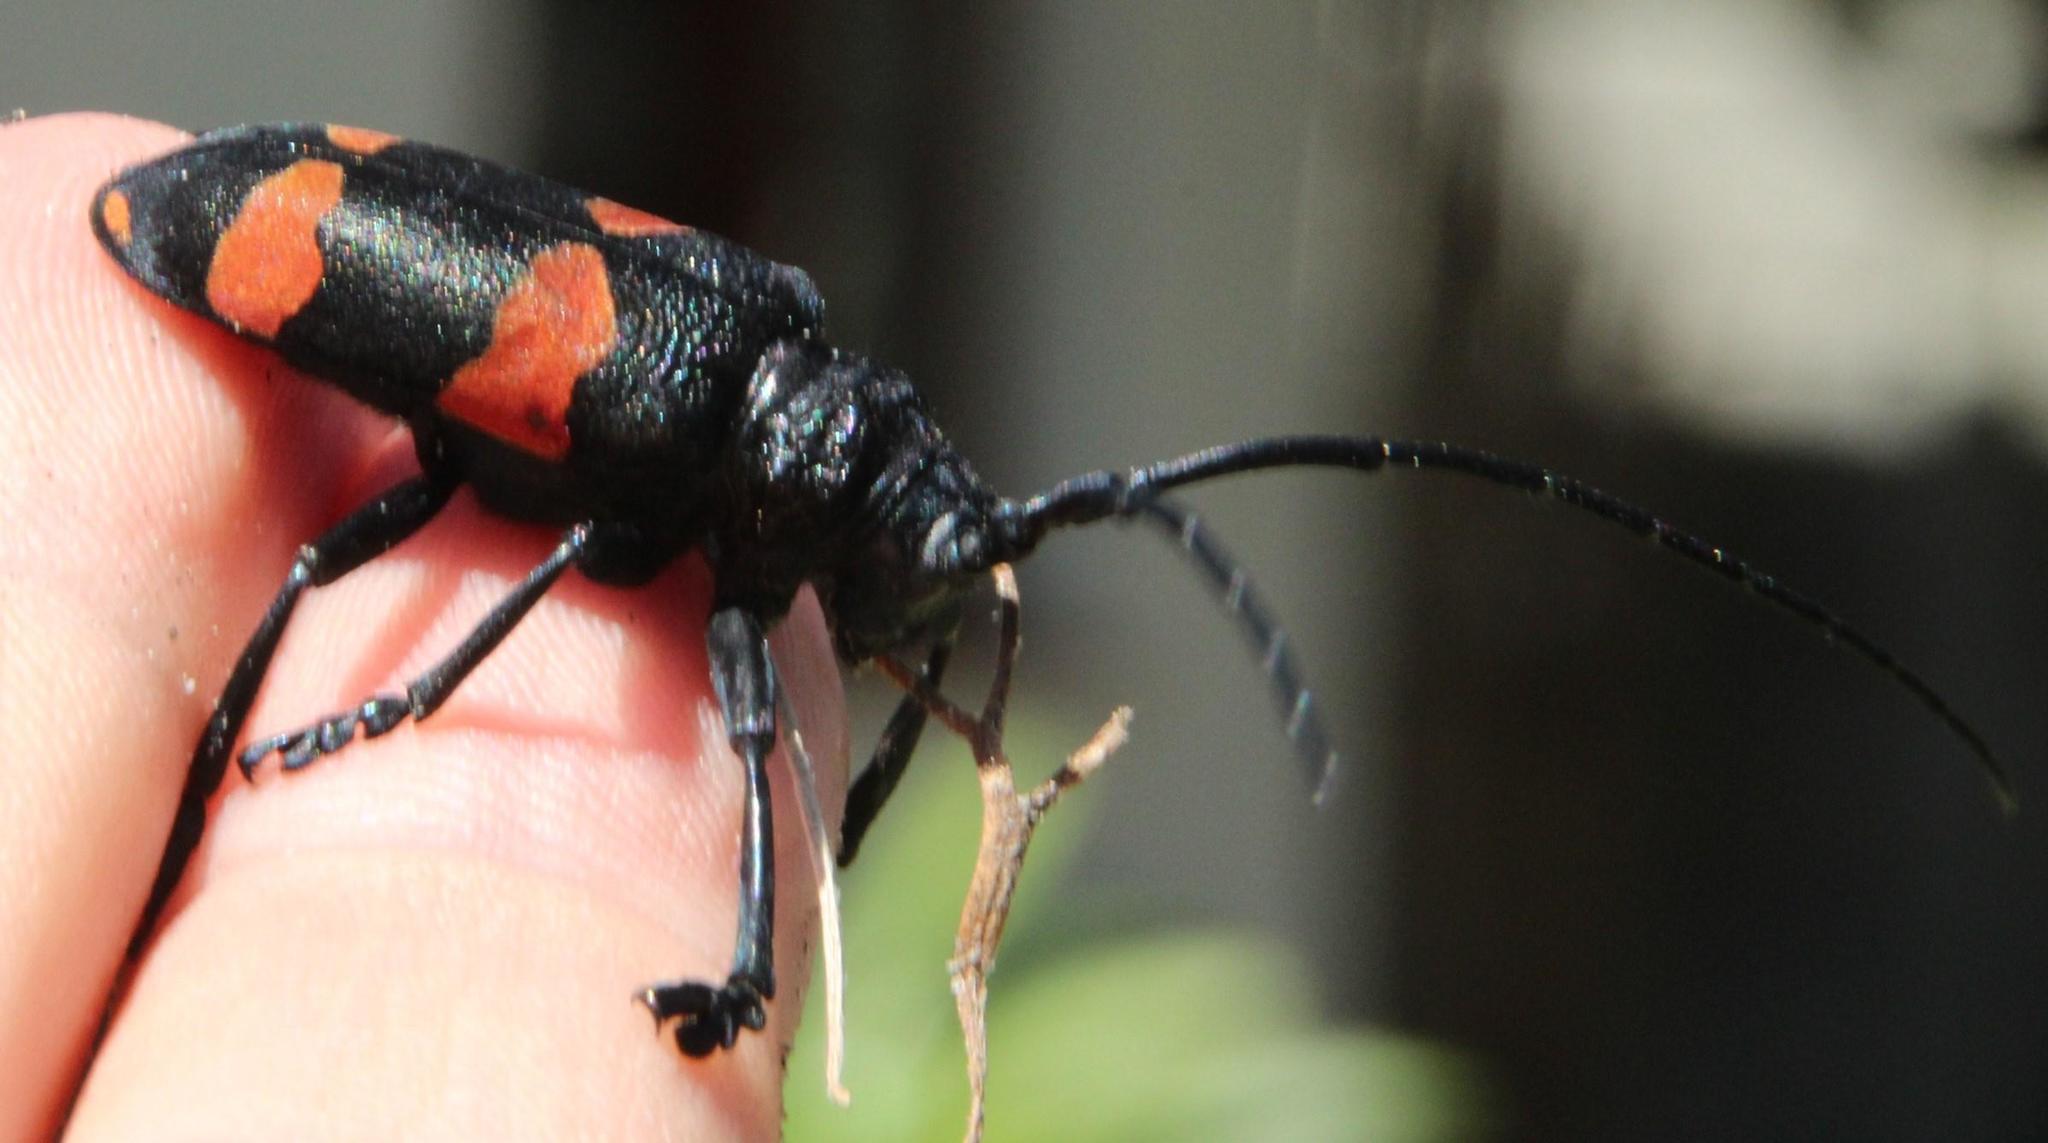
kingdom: Animalia
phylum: Arthropoda
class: Insecta
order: Coleoptera
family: Cerambycidae
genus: Ceroplesis
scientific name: Ceroplesis aethiops
